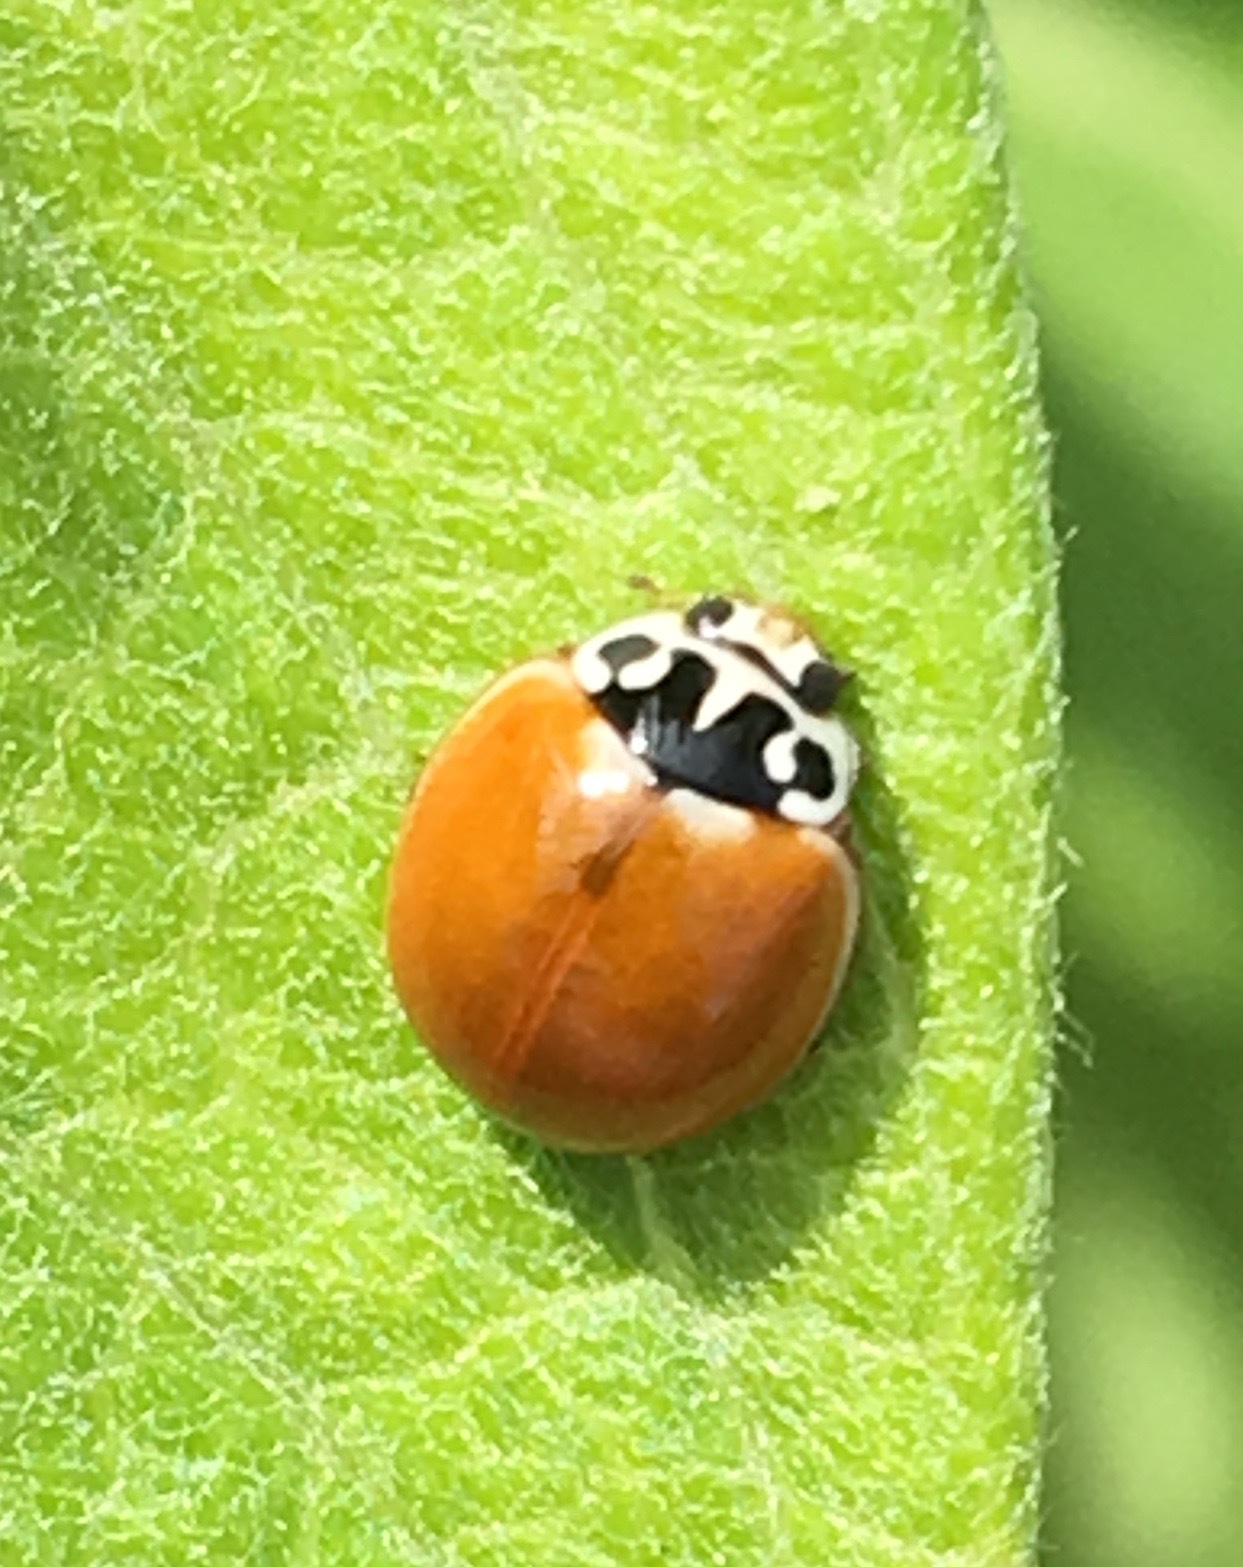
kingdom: Animalia
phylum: Arthropoda
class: Insecta
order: Coleoptera
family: Coccinellidae
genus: Cycloneda
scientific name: Cycloneda polita
